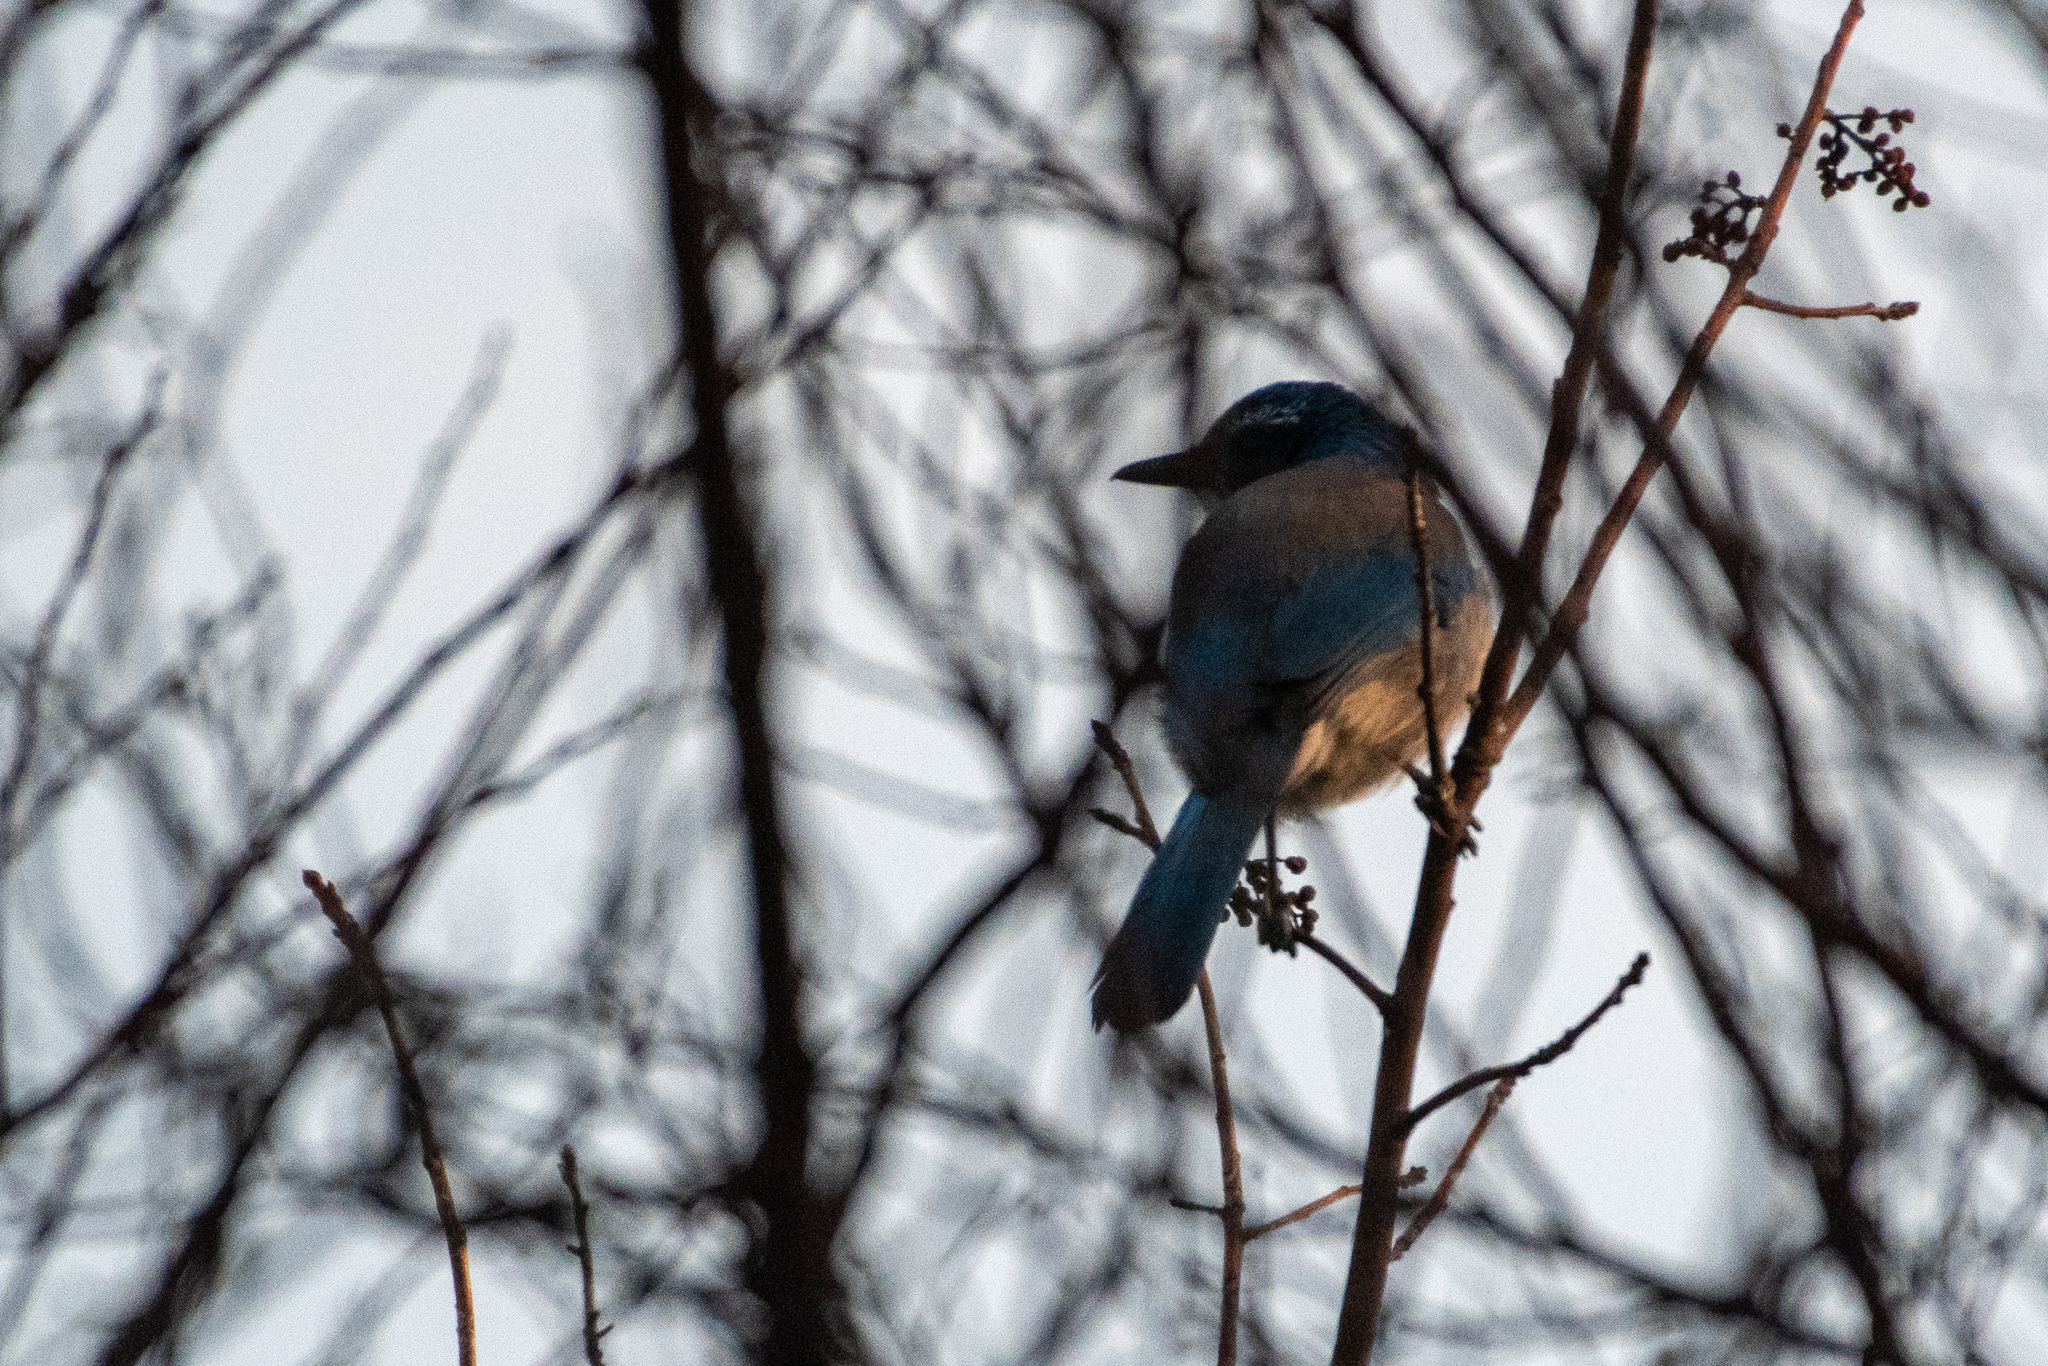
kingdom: Animalia
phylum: Chordata
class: Aves
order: Passeriformes
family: Corvidae
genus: Aphelocoma
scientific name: Aphelocoma californica
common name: California scrub-jay
